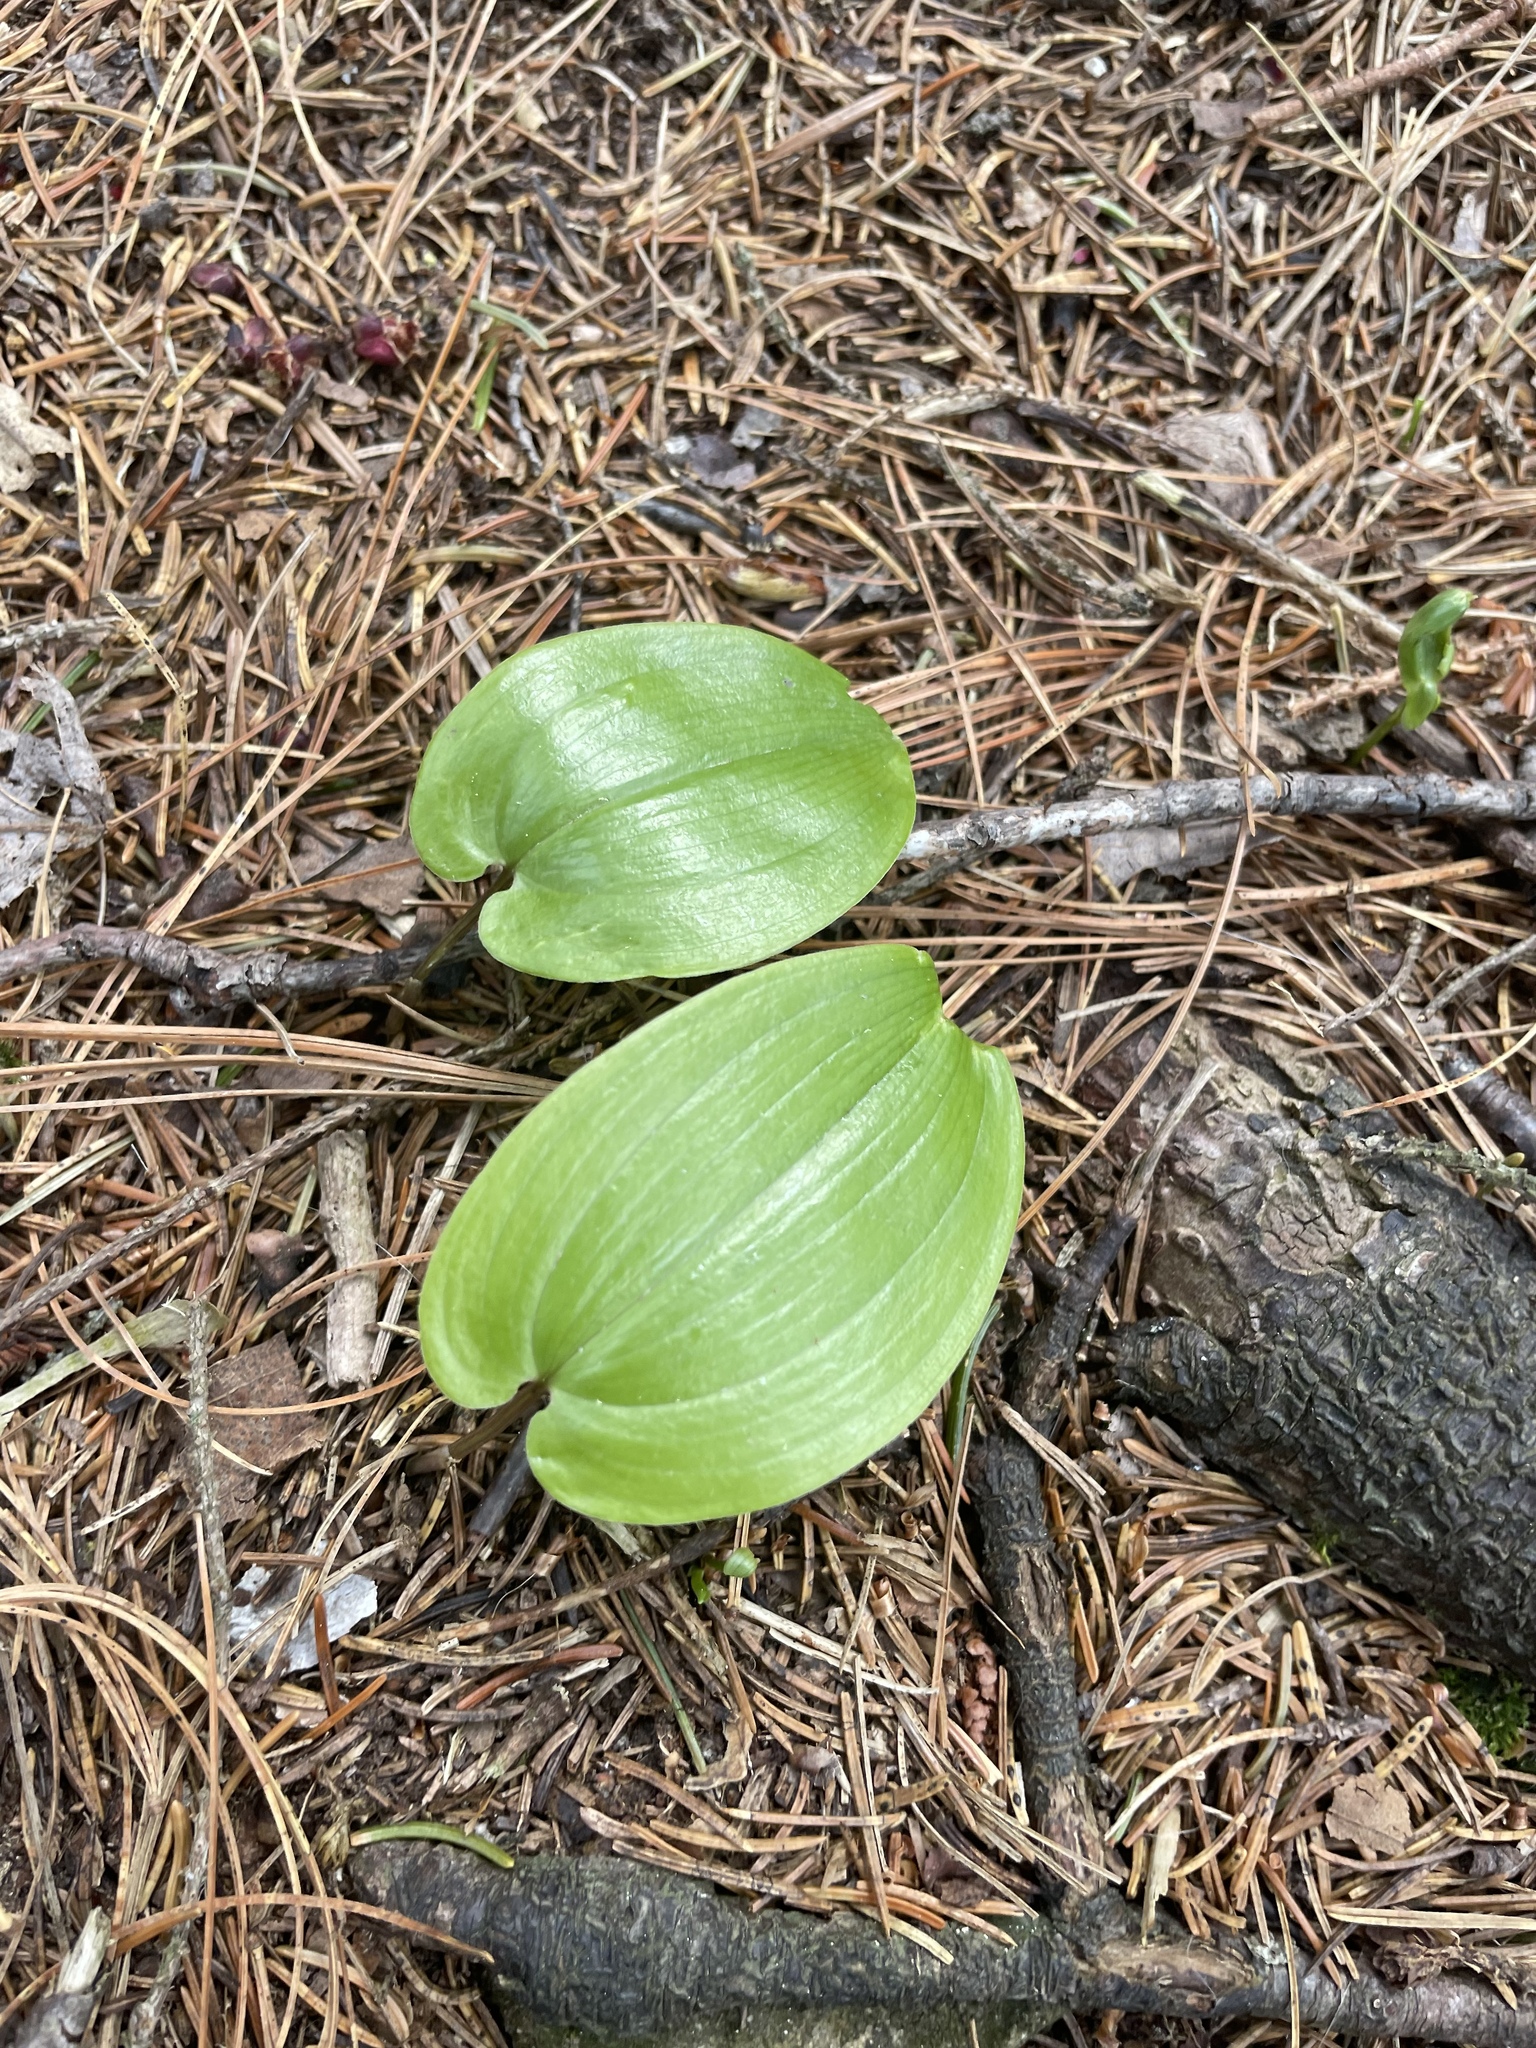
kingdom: Plantae
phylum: Tracheophyta
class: Liliopsida
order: Asparagales
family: Asparagaceae
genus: Maianthemum
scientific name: Maianthemum canadense
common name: False lily-of-the-valley
